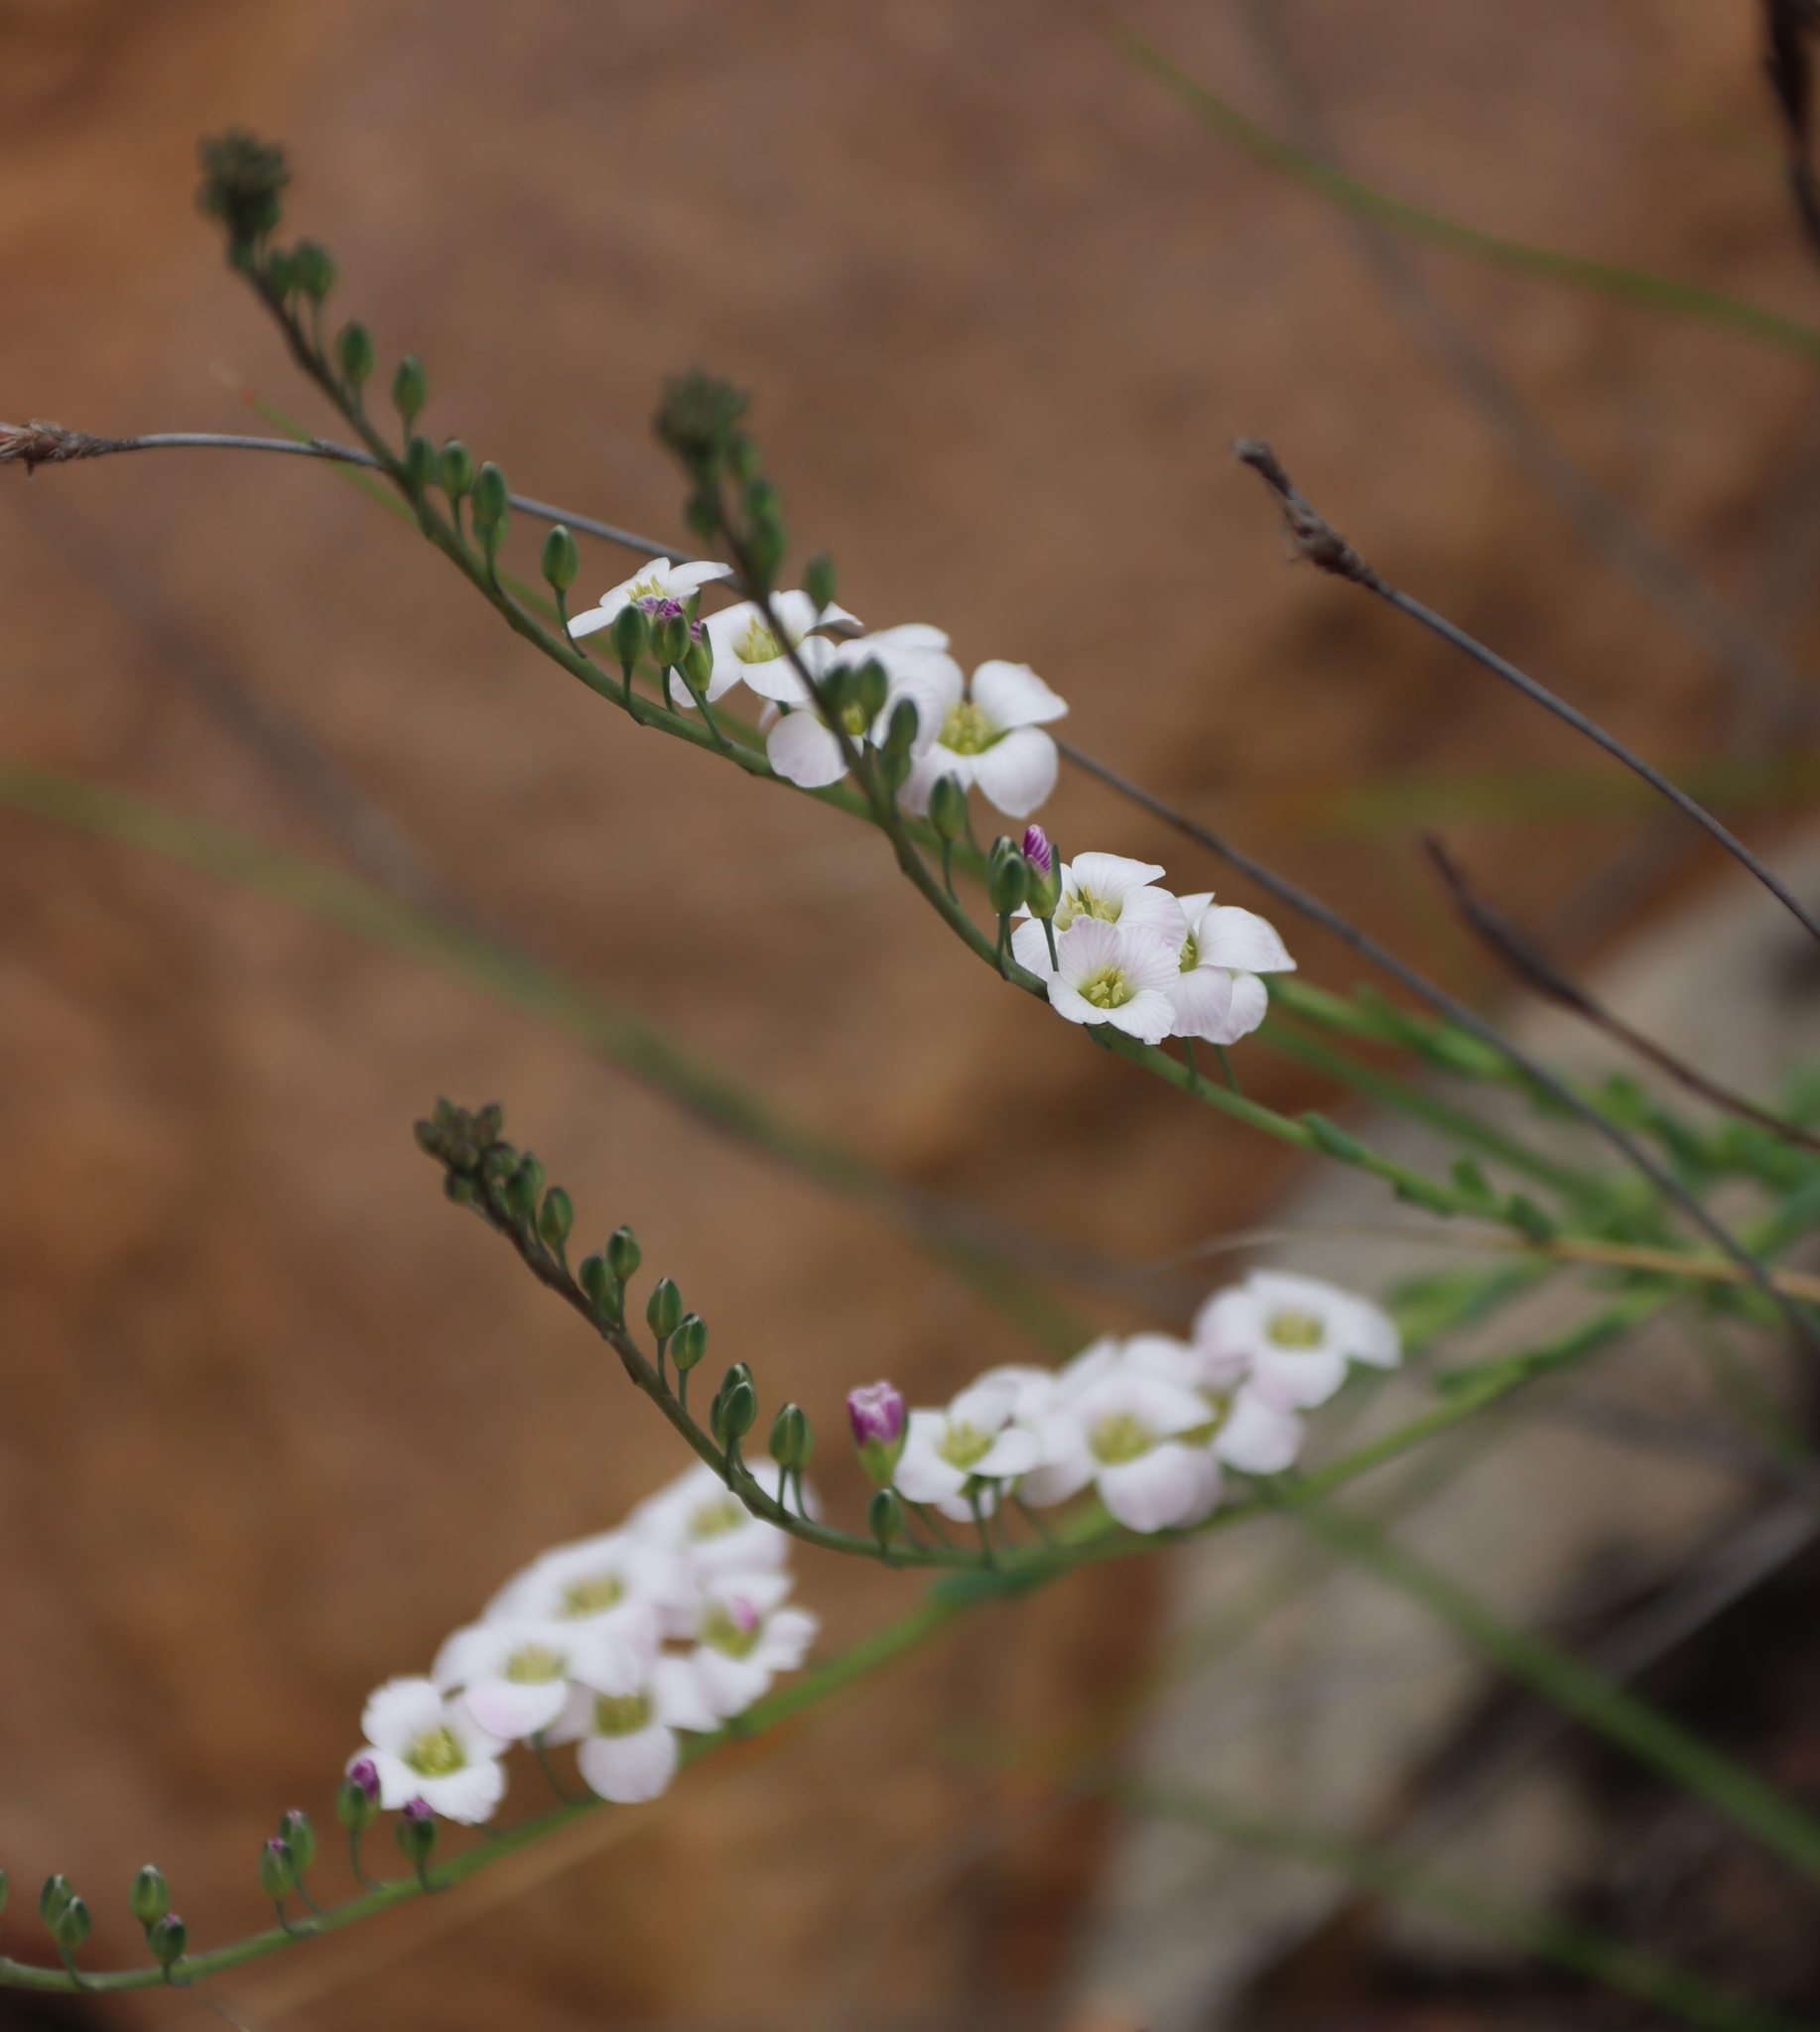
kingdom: Plantae
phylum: Tracheophyta
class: Magnoliopsida
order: Brassicales
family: Brassicaceae
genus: Heliophila
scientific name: Heliophila glauca
